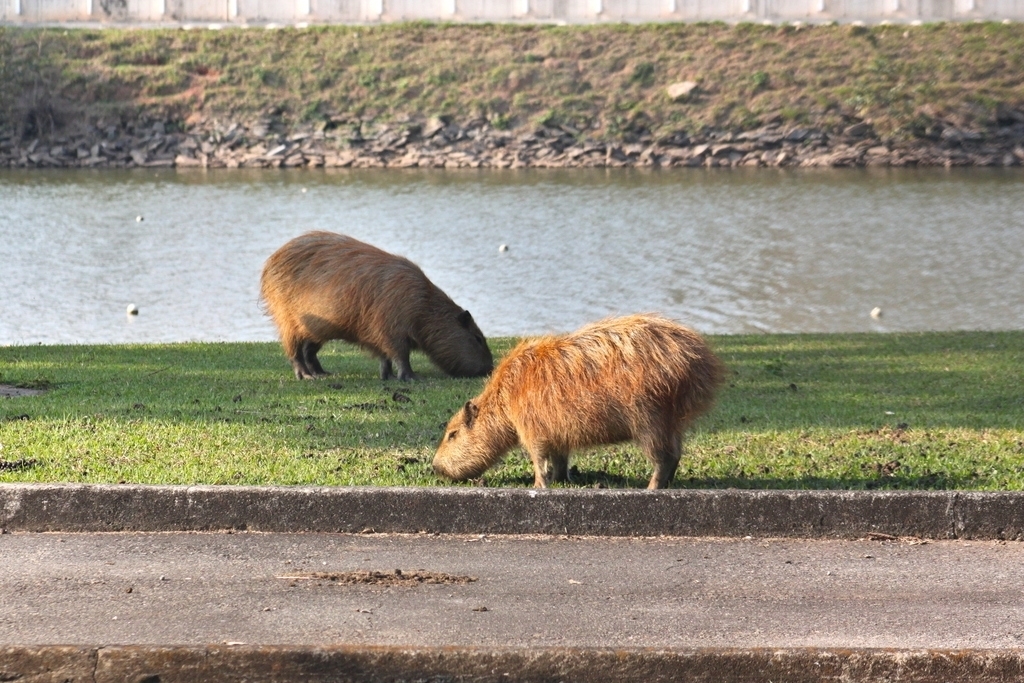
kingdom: Animalia
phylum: Chordata
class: Mammalia
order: Rodentia
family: Caviidae
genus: Hydrochoerus
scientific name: Hydrochoerus hydrochaeris
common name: Capybara
